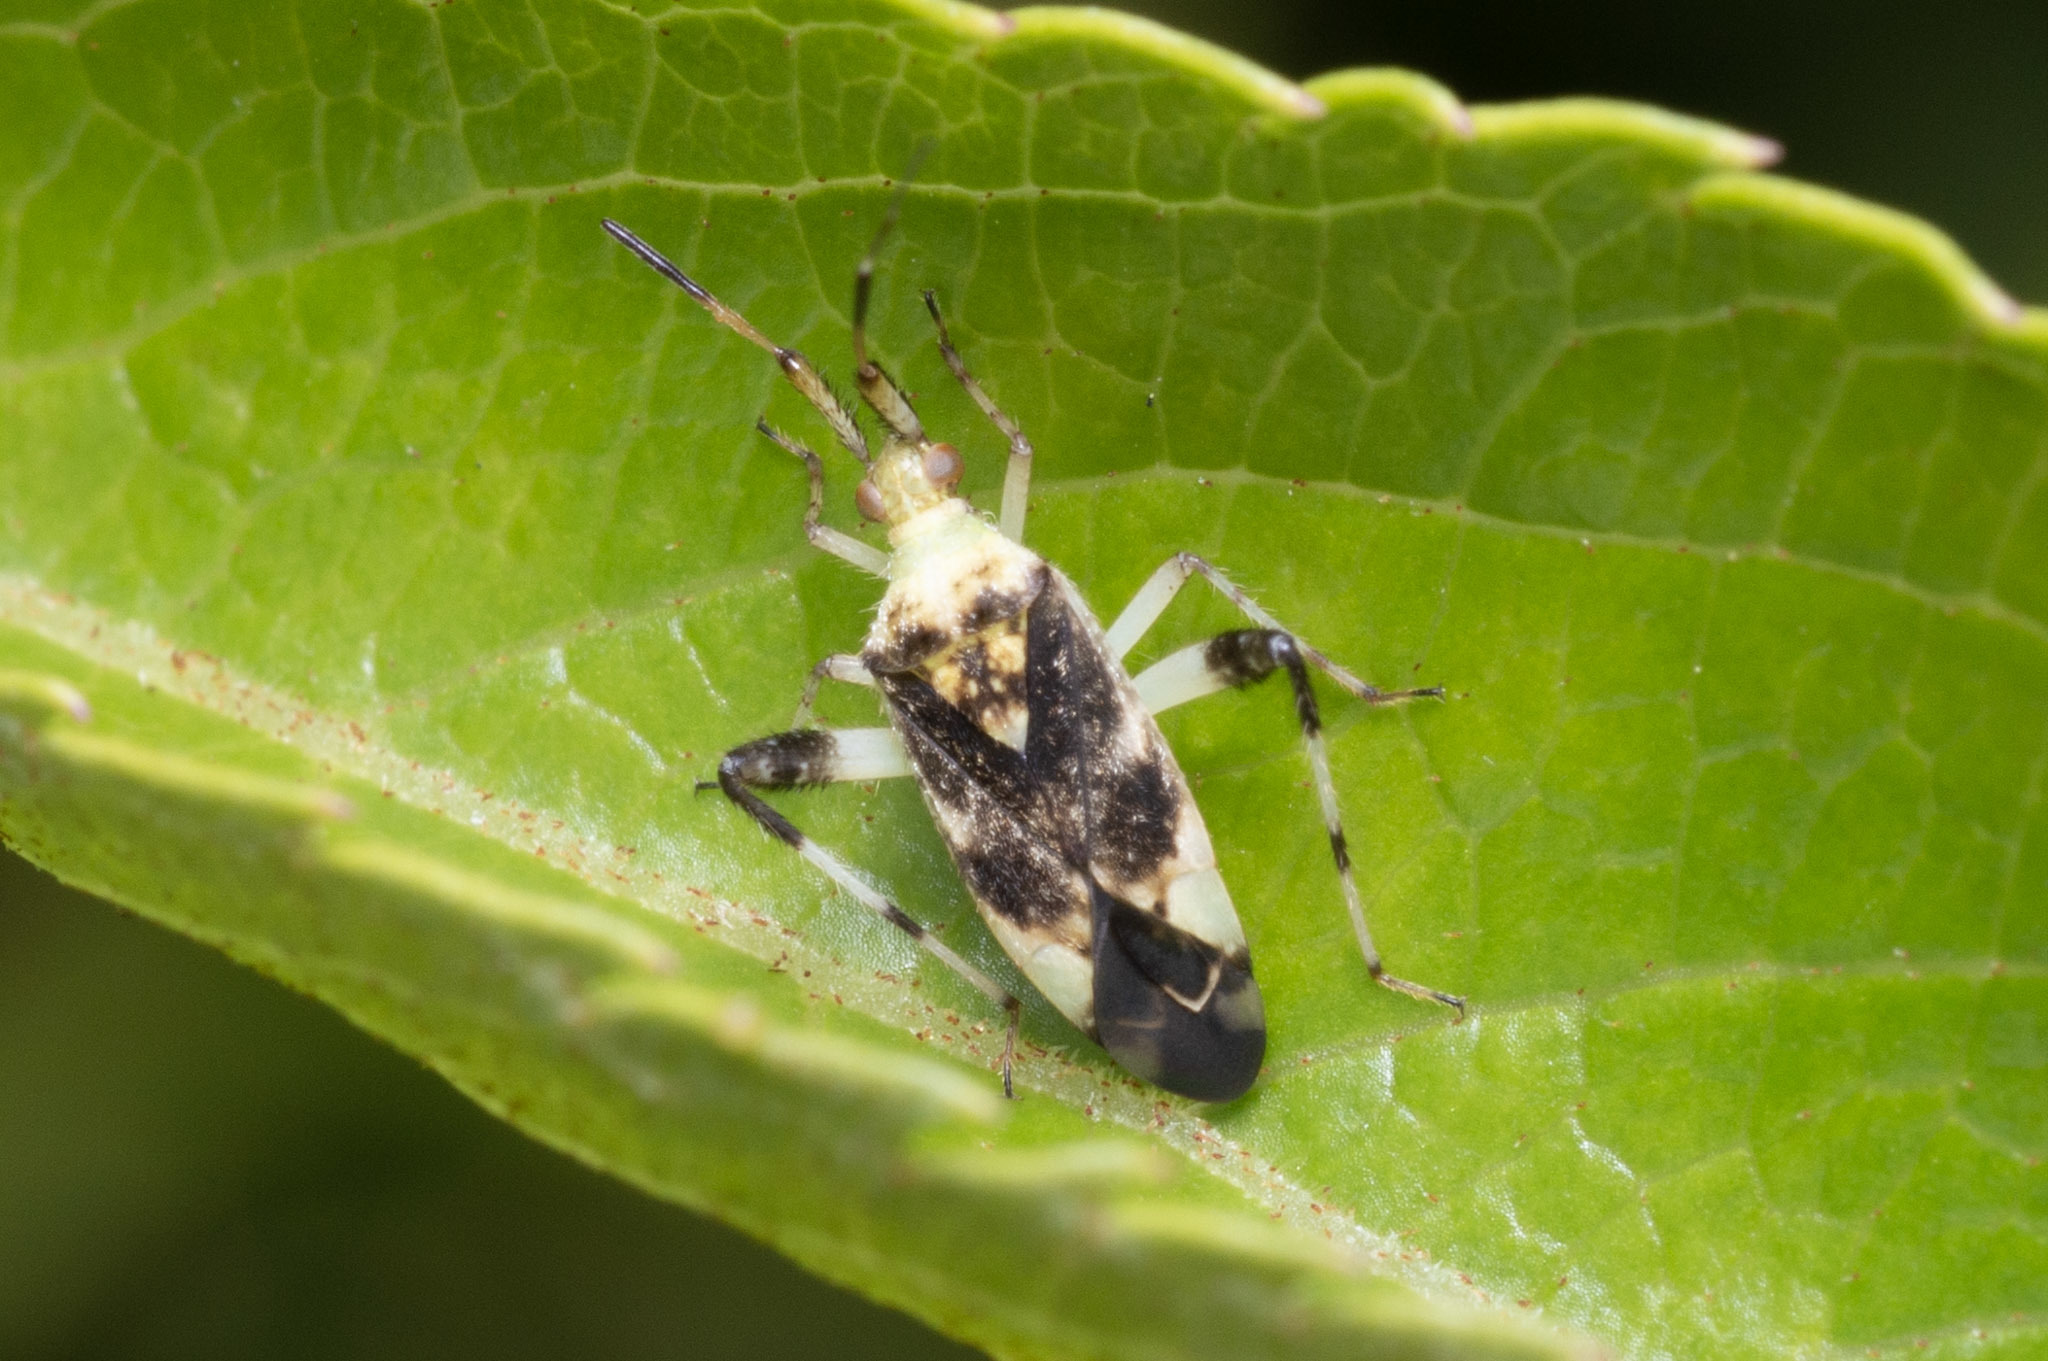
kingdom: Animalia
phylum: Arthropoda
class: Insecta
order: Hemiptera
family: Miridae
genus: Neurocolpus
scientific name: Neurocolpus jessiae
